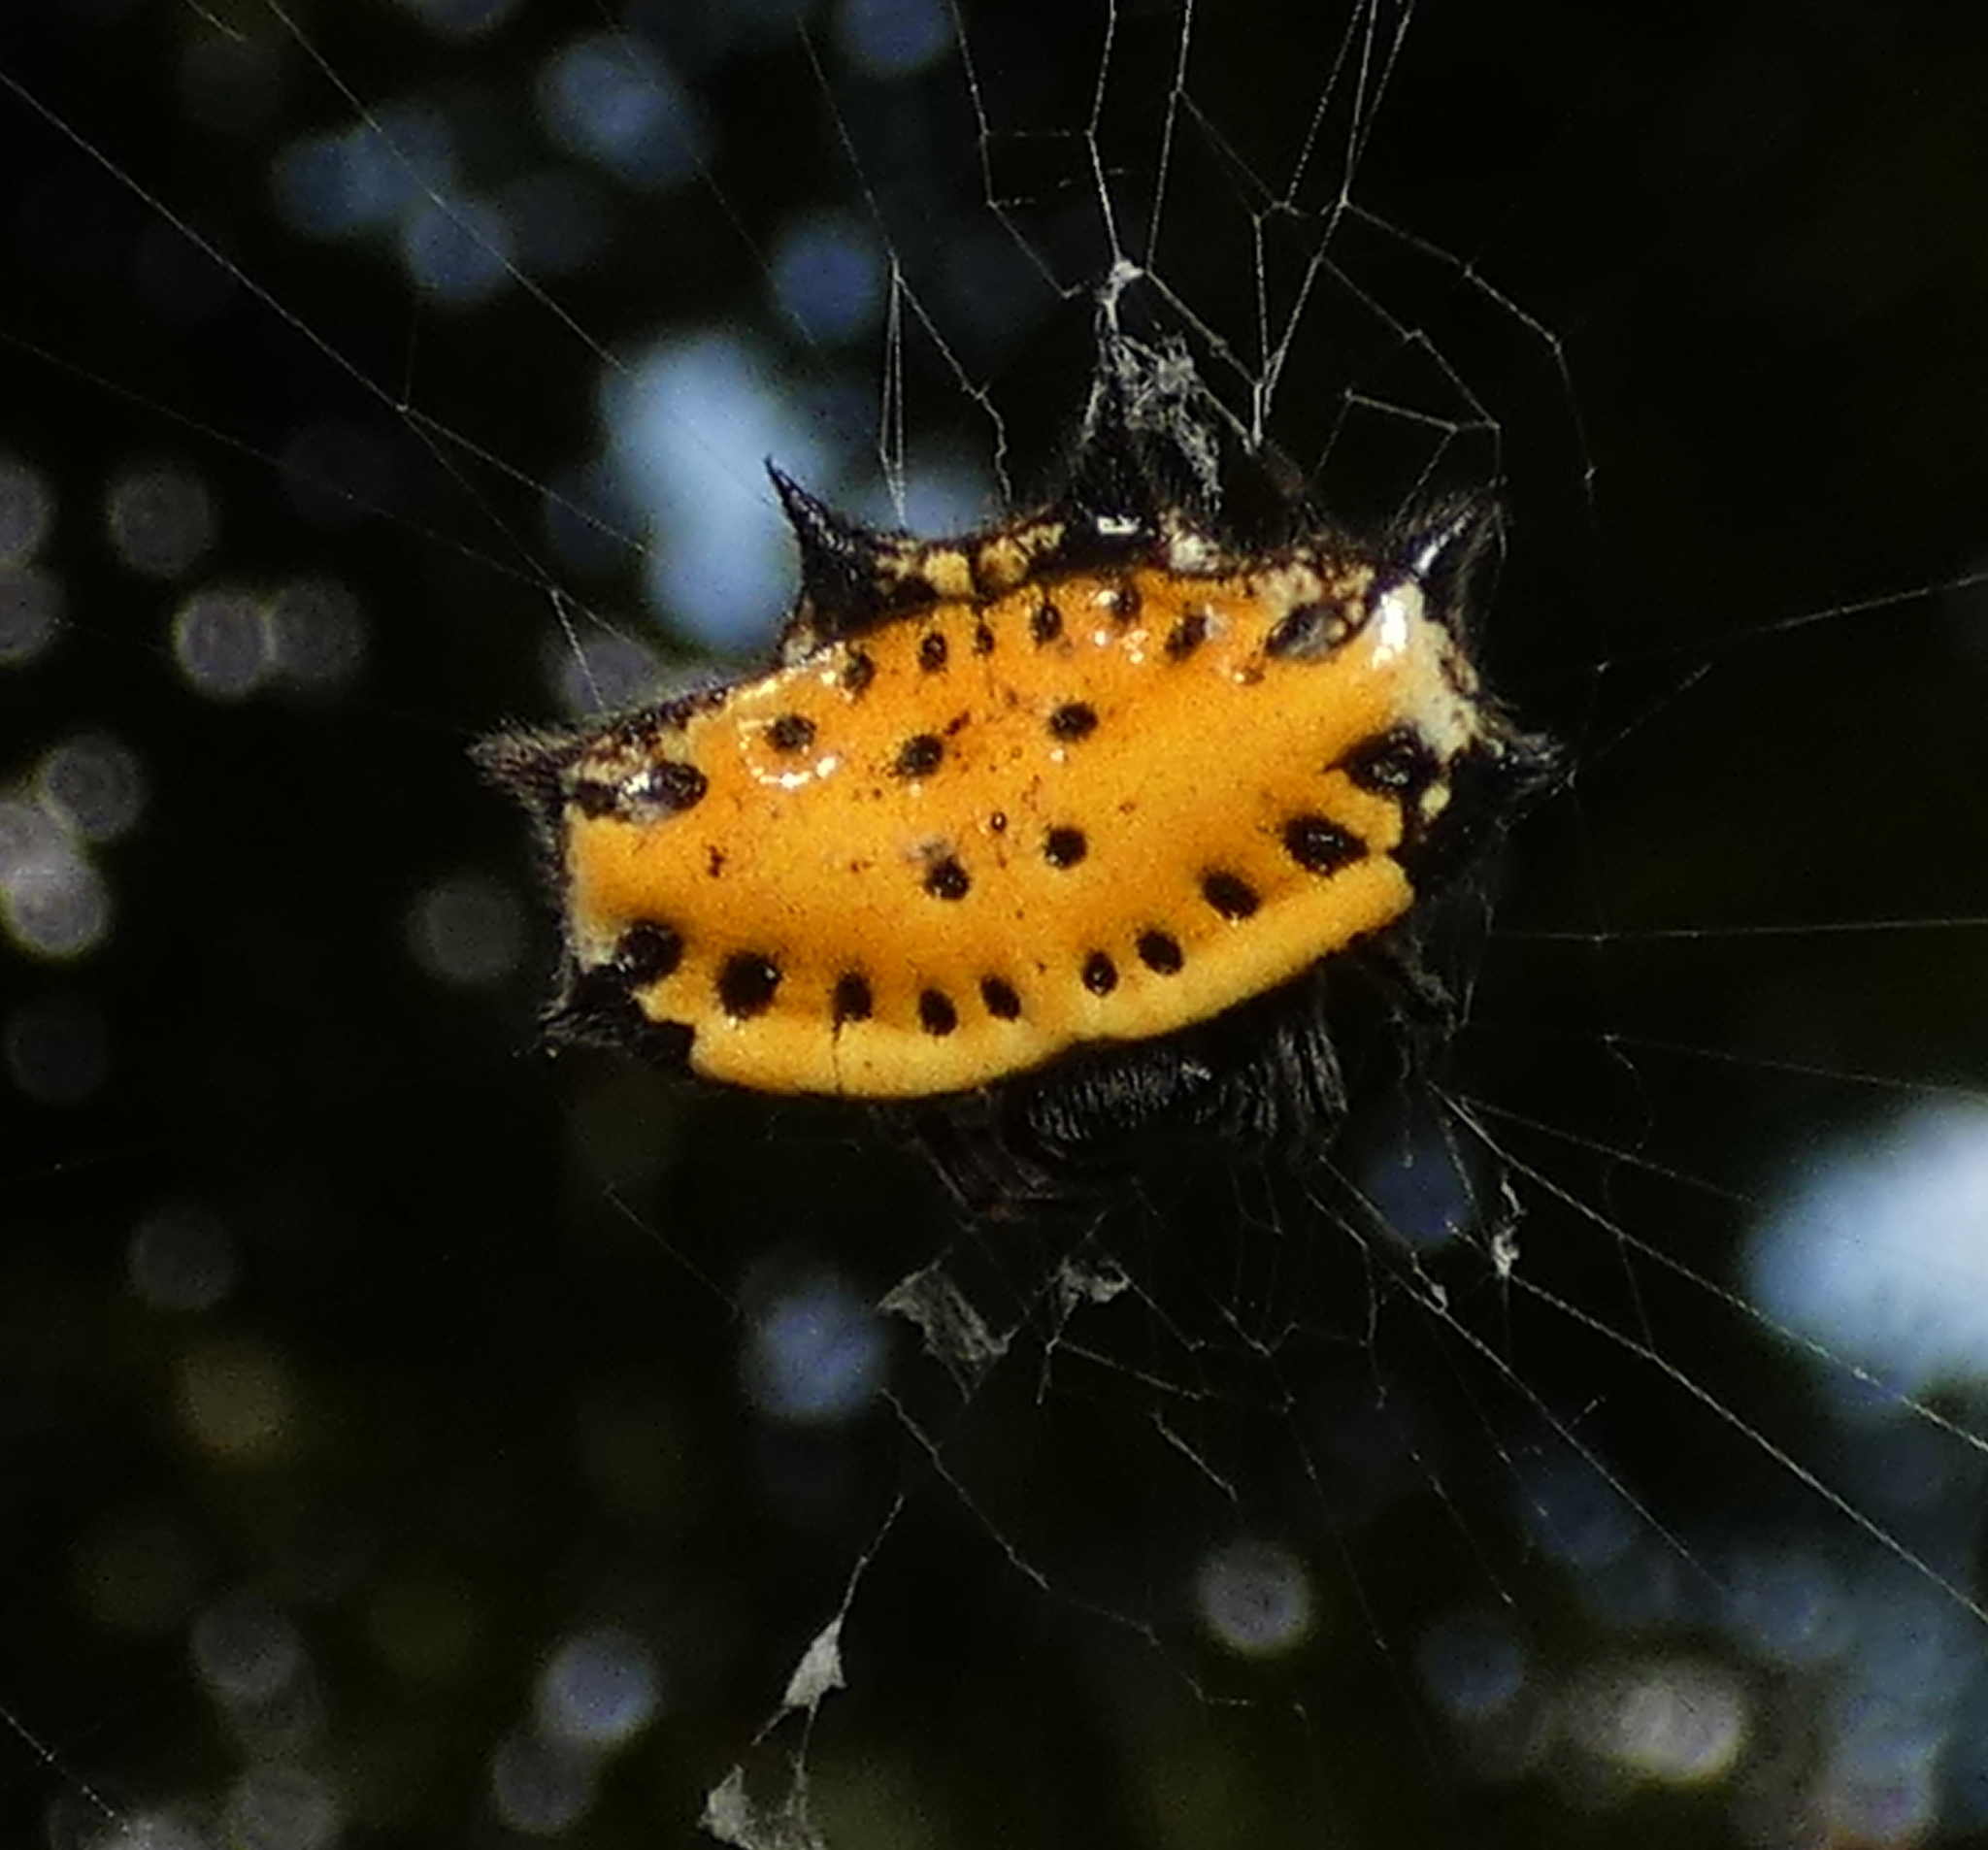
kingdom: Animalia
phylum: Arthropoda
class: Arachnida
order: Araneae
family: Araneidae
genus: Gasteracantha
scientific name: Gasteracantha cancriformis
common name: Orb weavers
